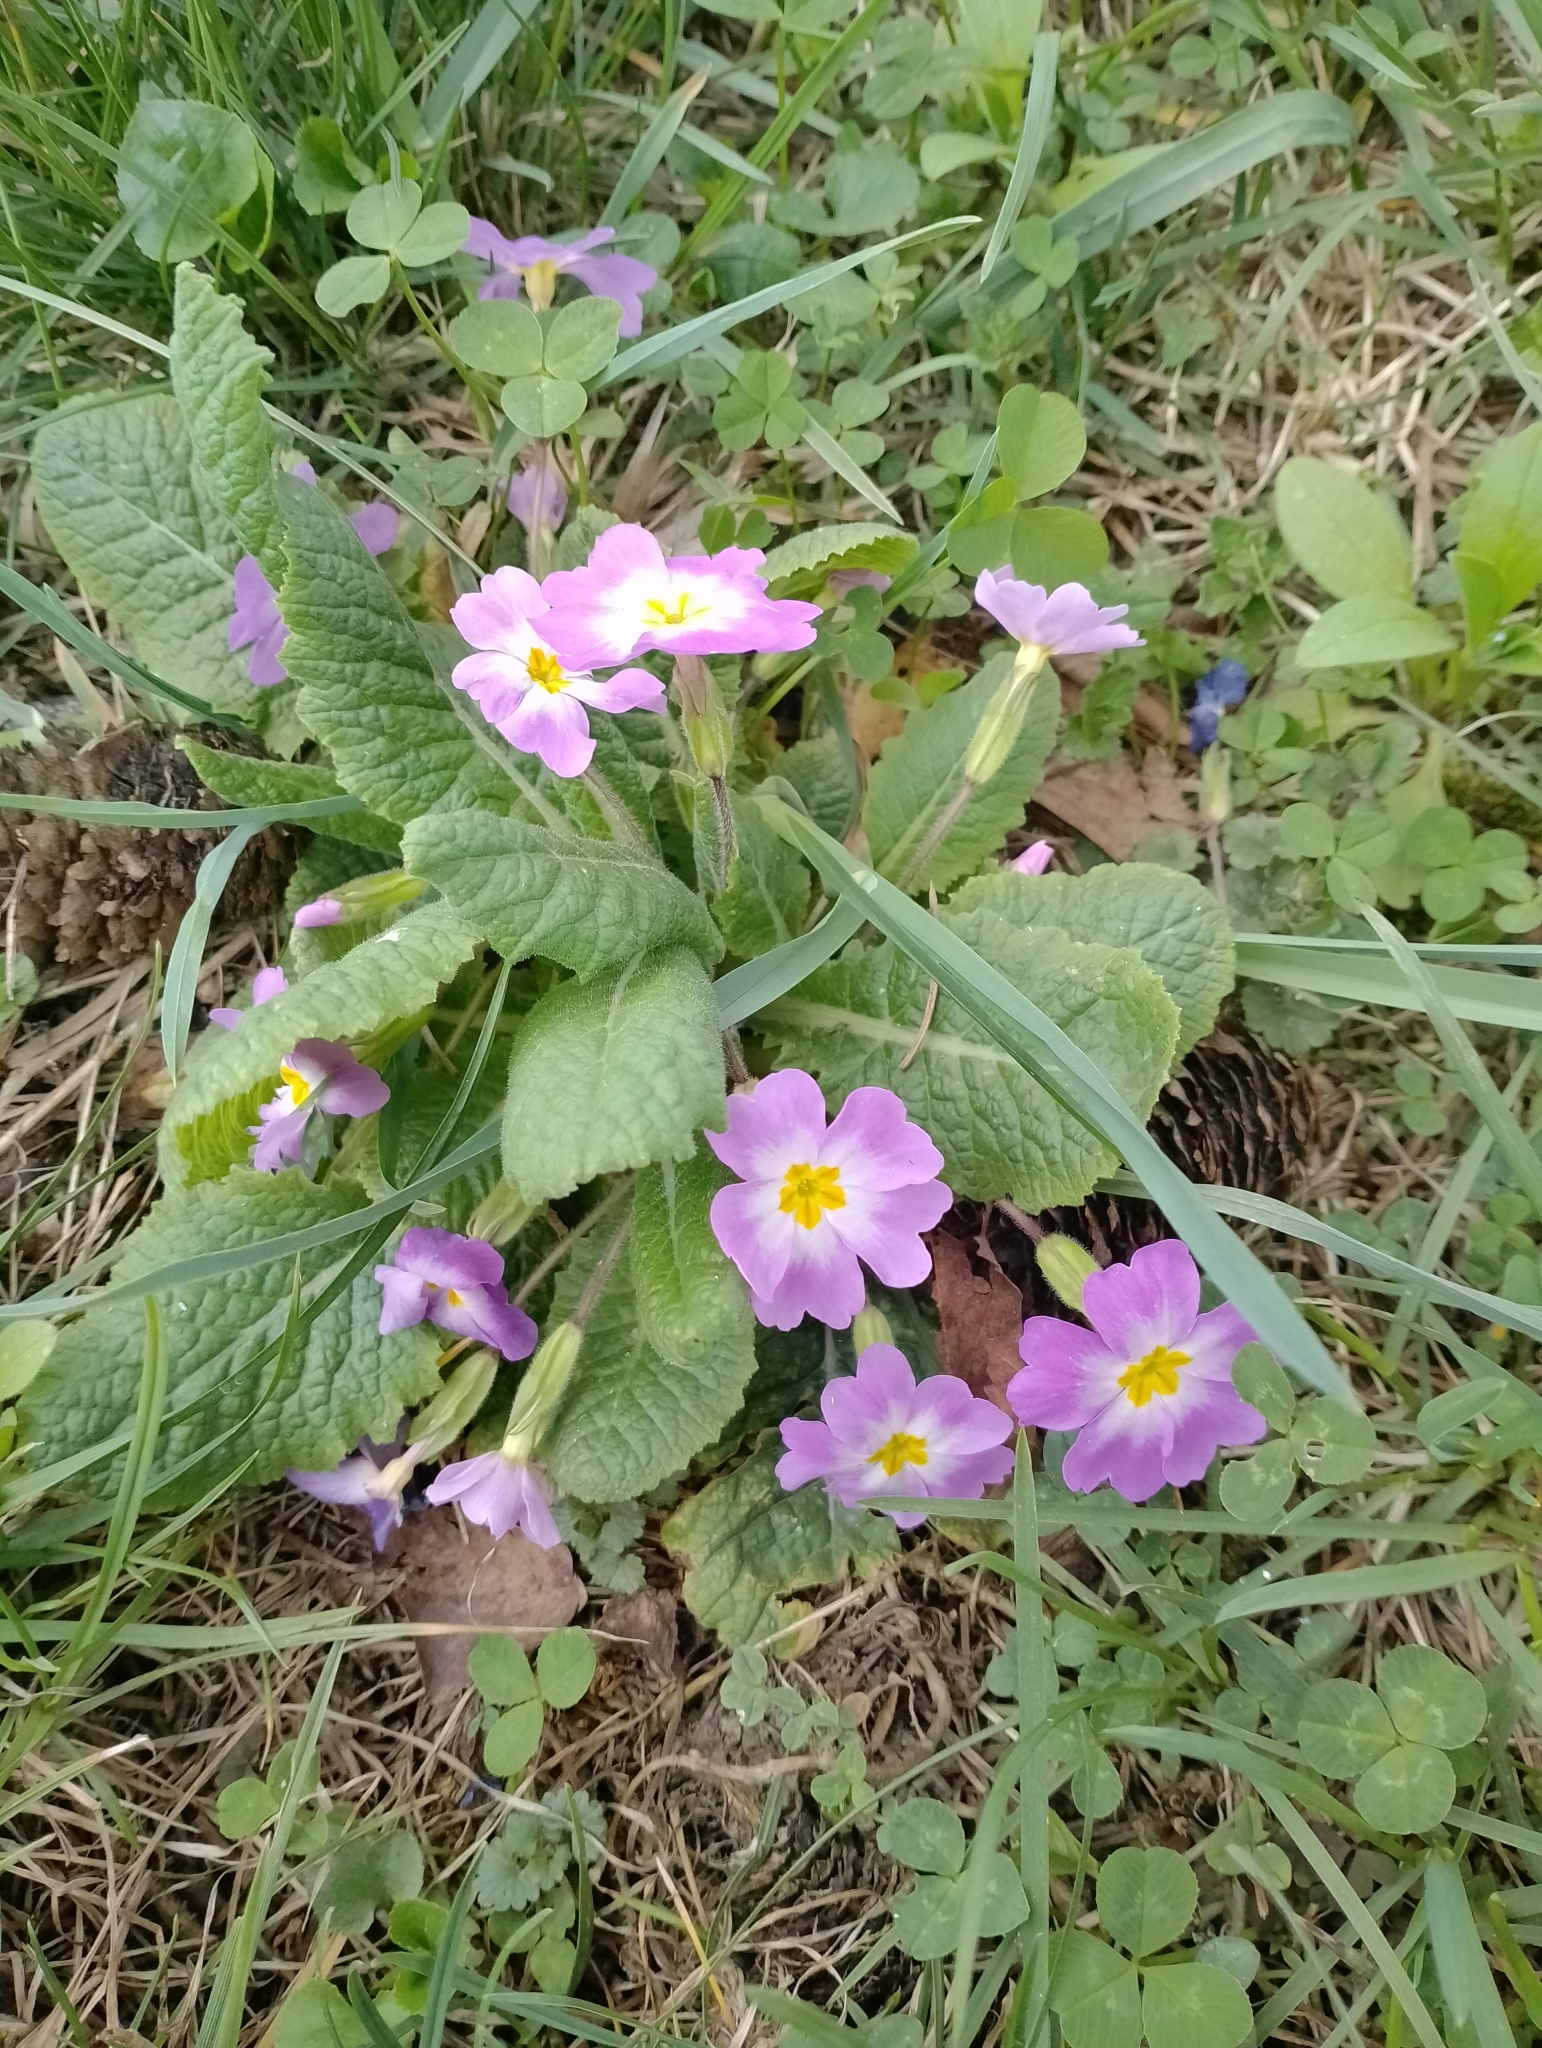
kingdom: Plantae
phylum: Tracheophyta
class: Magnoliopsida
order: Ericales
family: Primulaceae
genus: Primula
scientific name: Primula vulgaris
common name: Primrose
